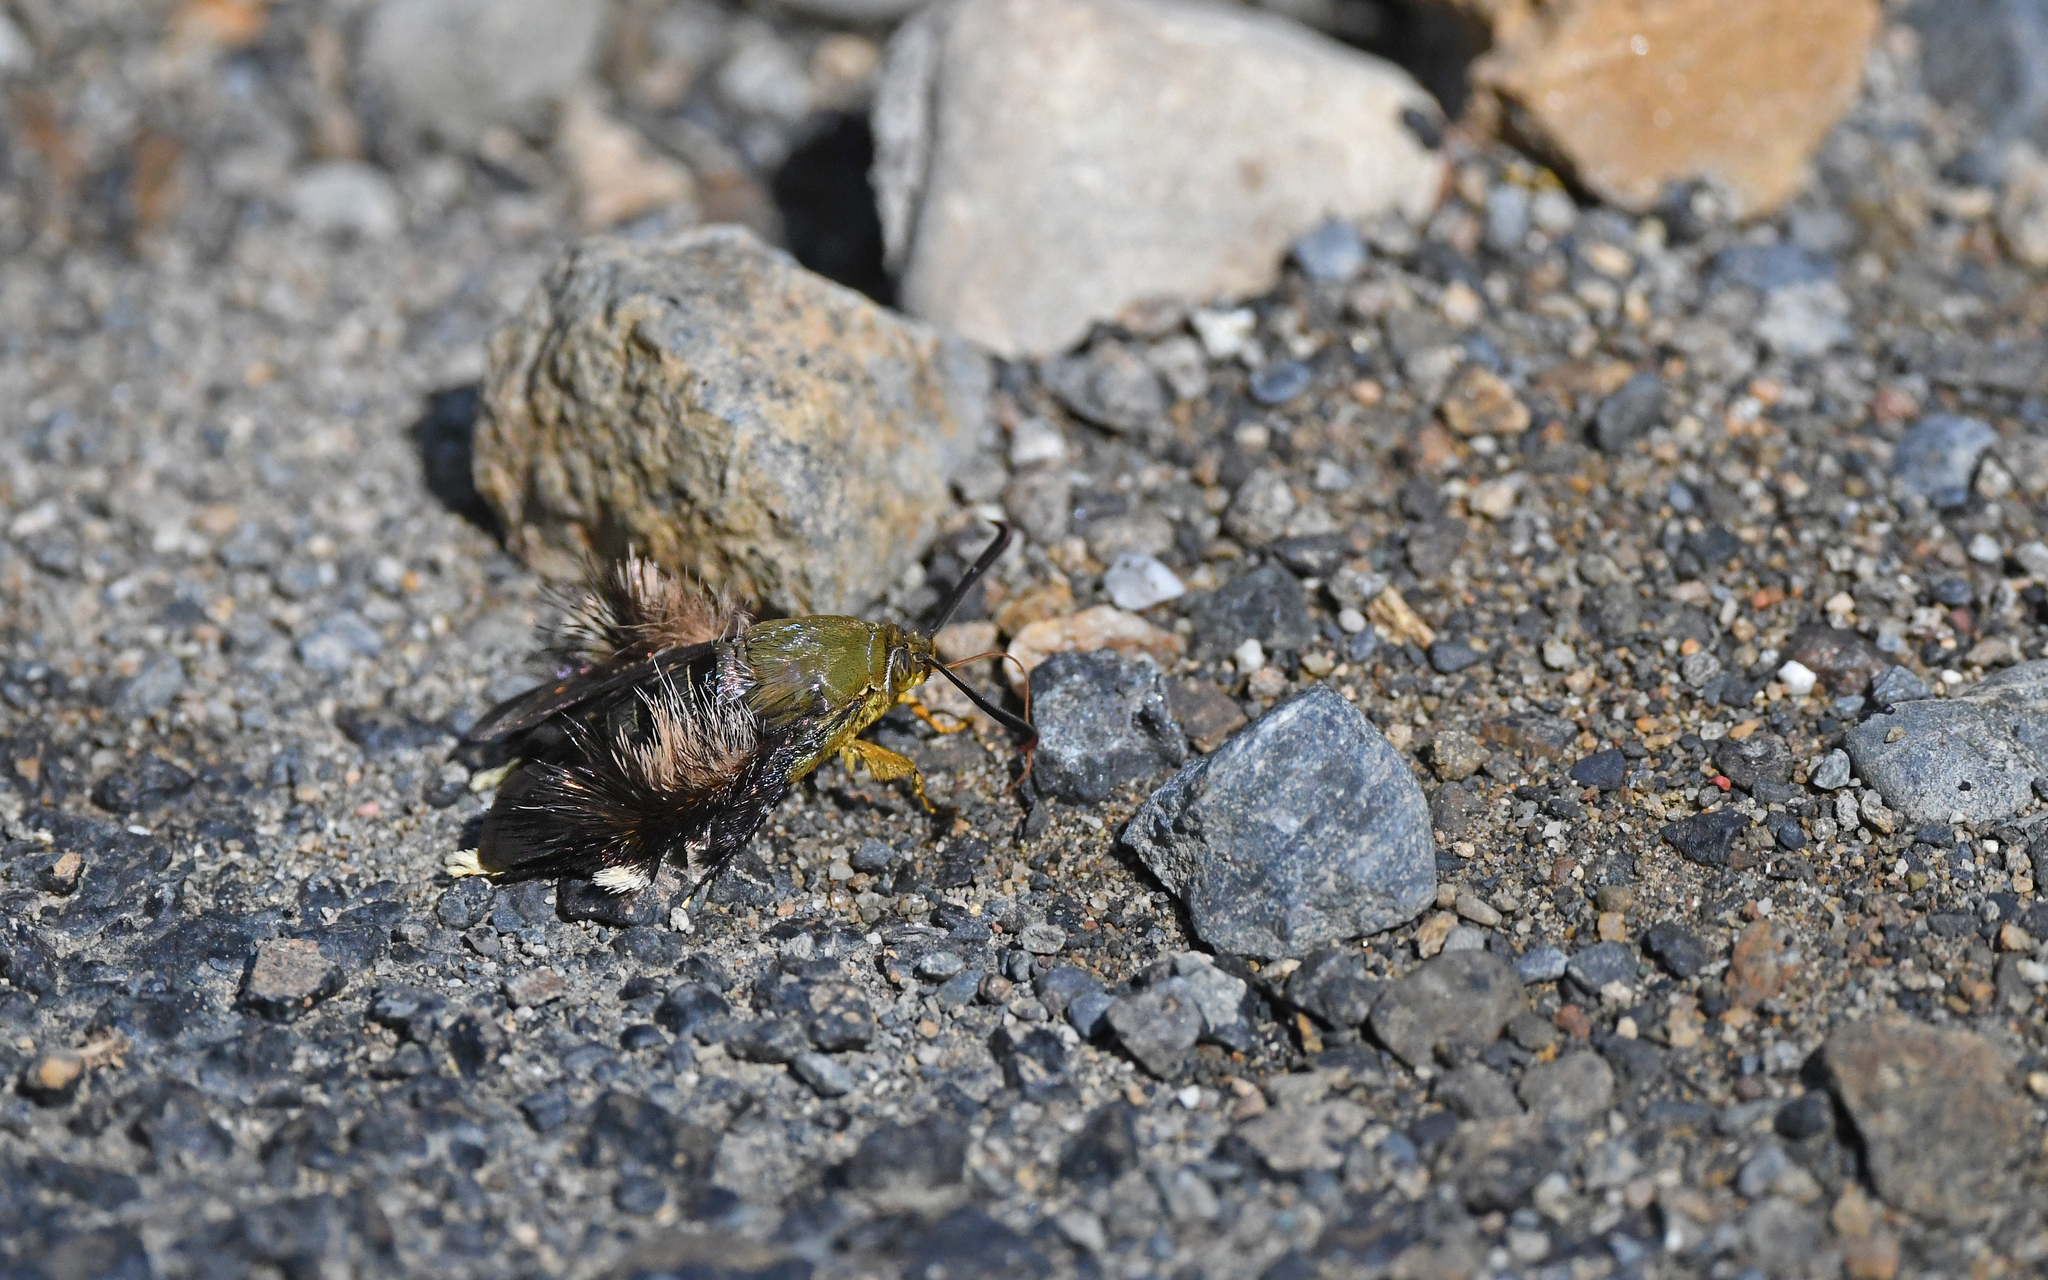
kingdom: Animalia
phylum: Arthropoda
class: Insecta
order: Lepidoptera
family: Sesiidae
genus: Melittia
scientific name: Melittia xanthopus
